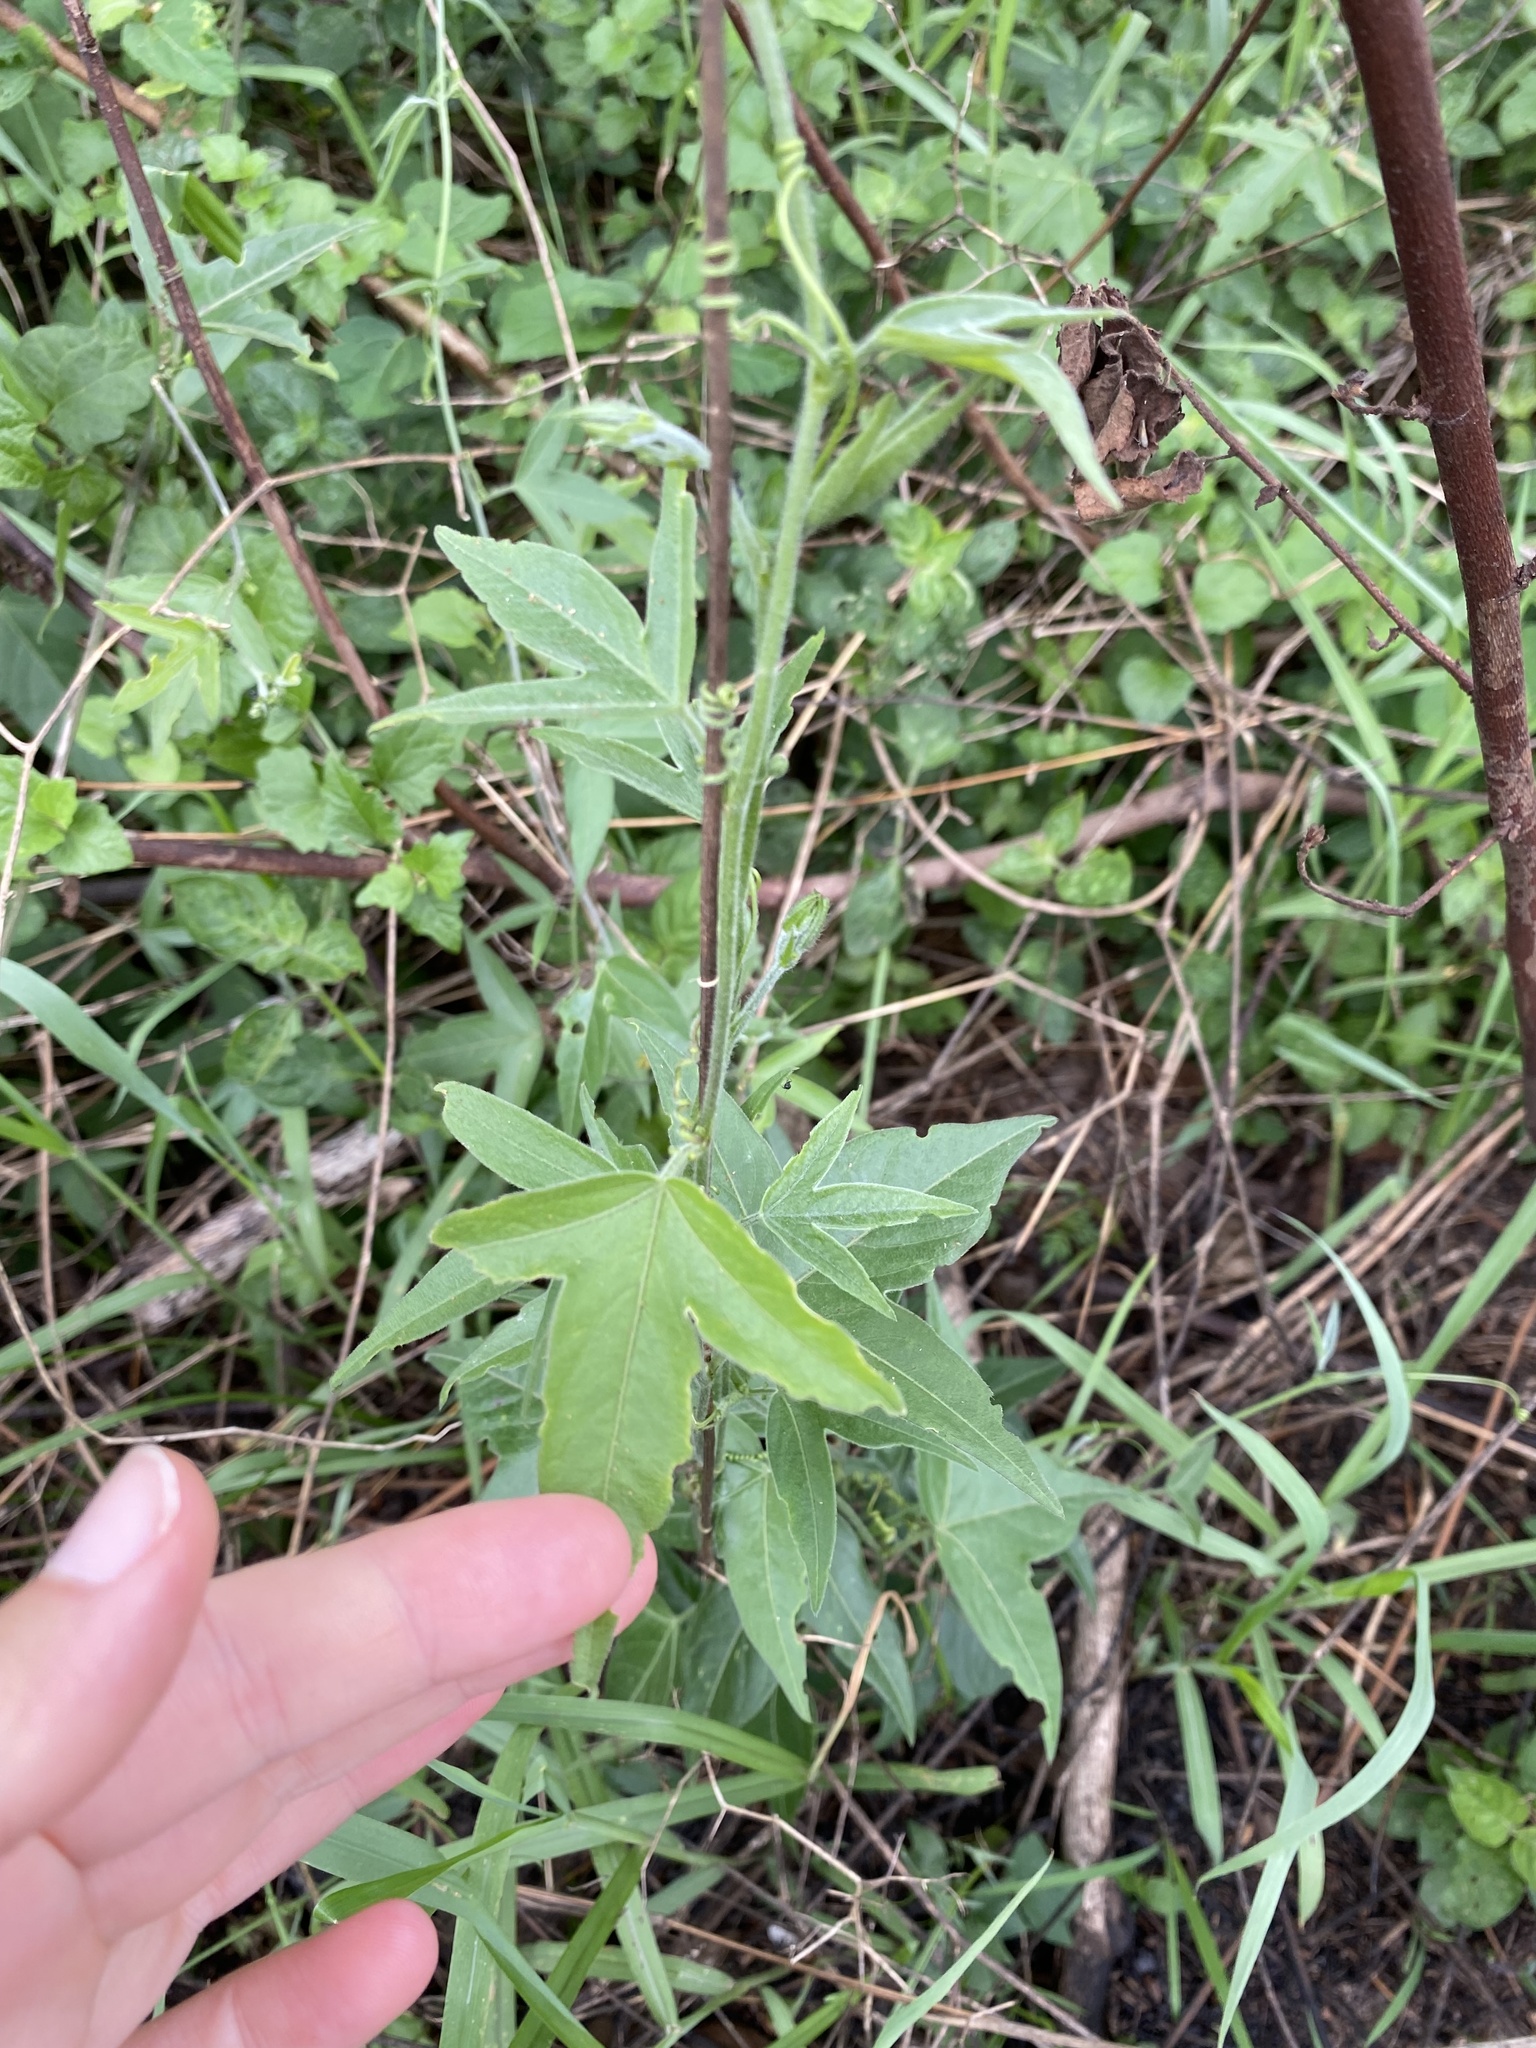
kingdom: Plantae
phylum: Tracheophyta
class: Magnoliopsida
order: Malpighiales
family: Passifloraceae
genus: Passiflora
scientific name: Passiflora suberosa
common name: Wild passionfruit
